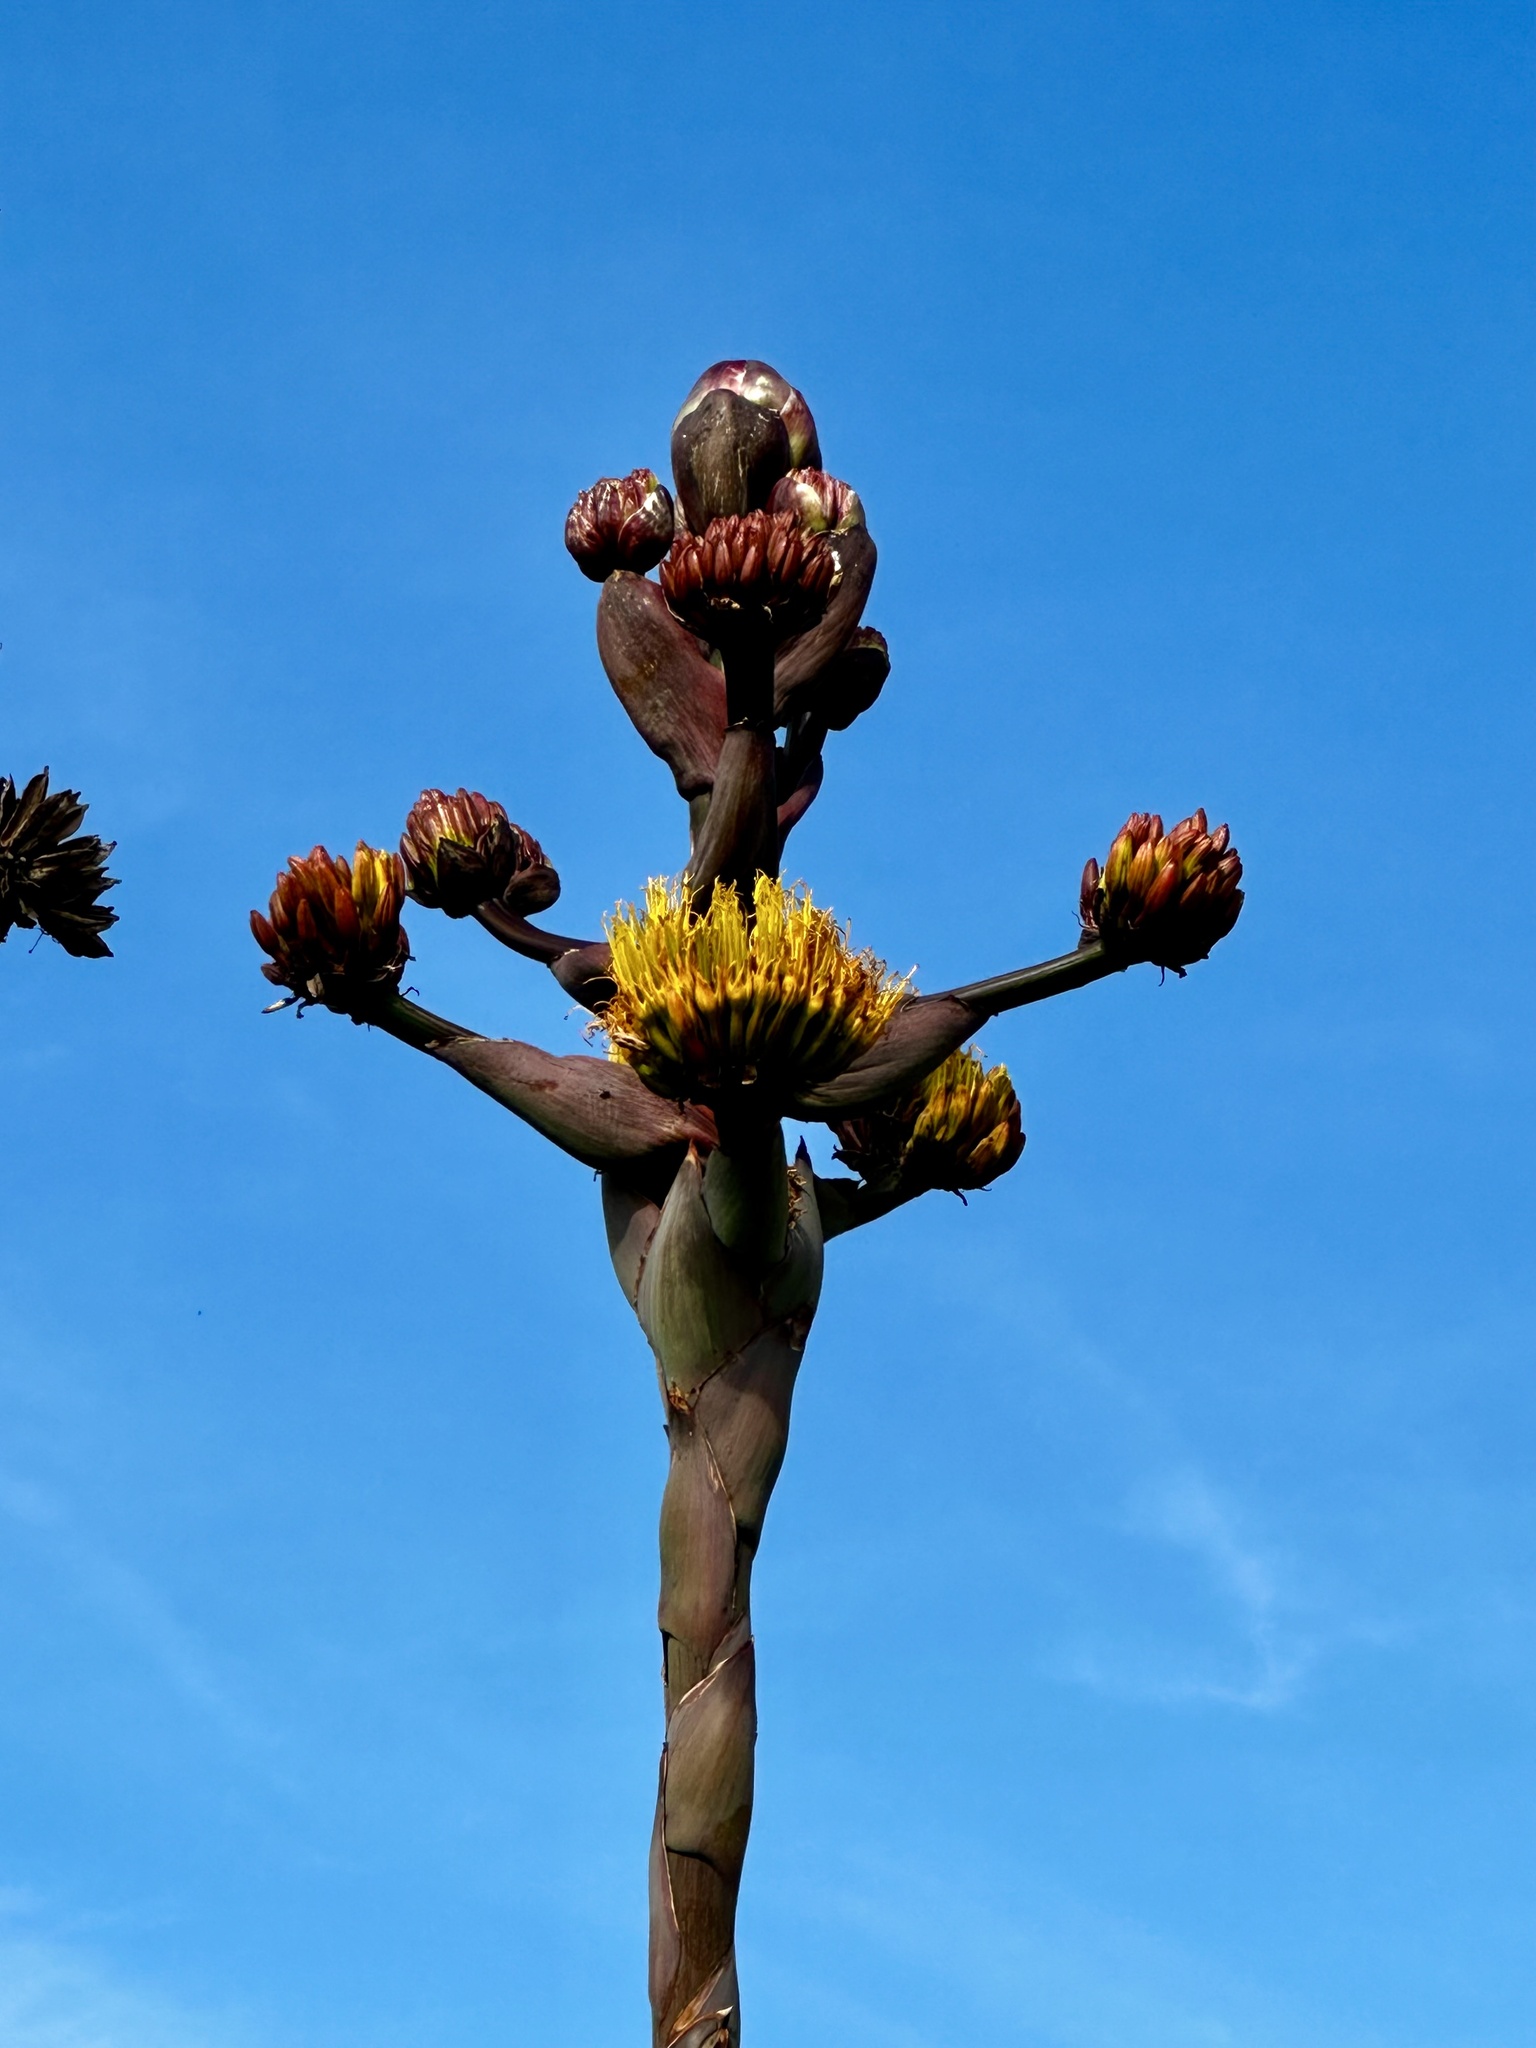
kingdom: Plantae
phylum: Tracheophyta
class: Liliopsida
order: Asparagales
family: Asparagaceae
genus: Agave
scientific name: Agave shawii
